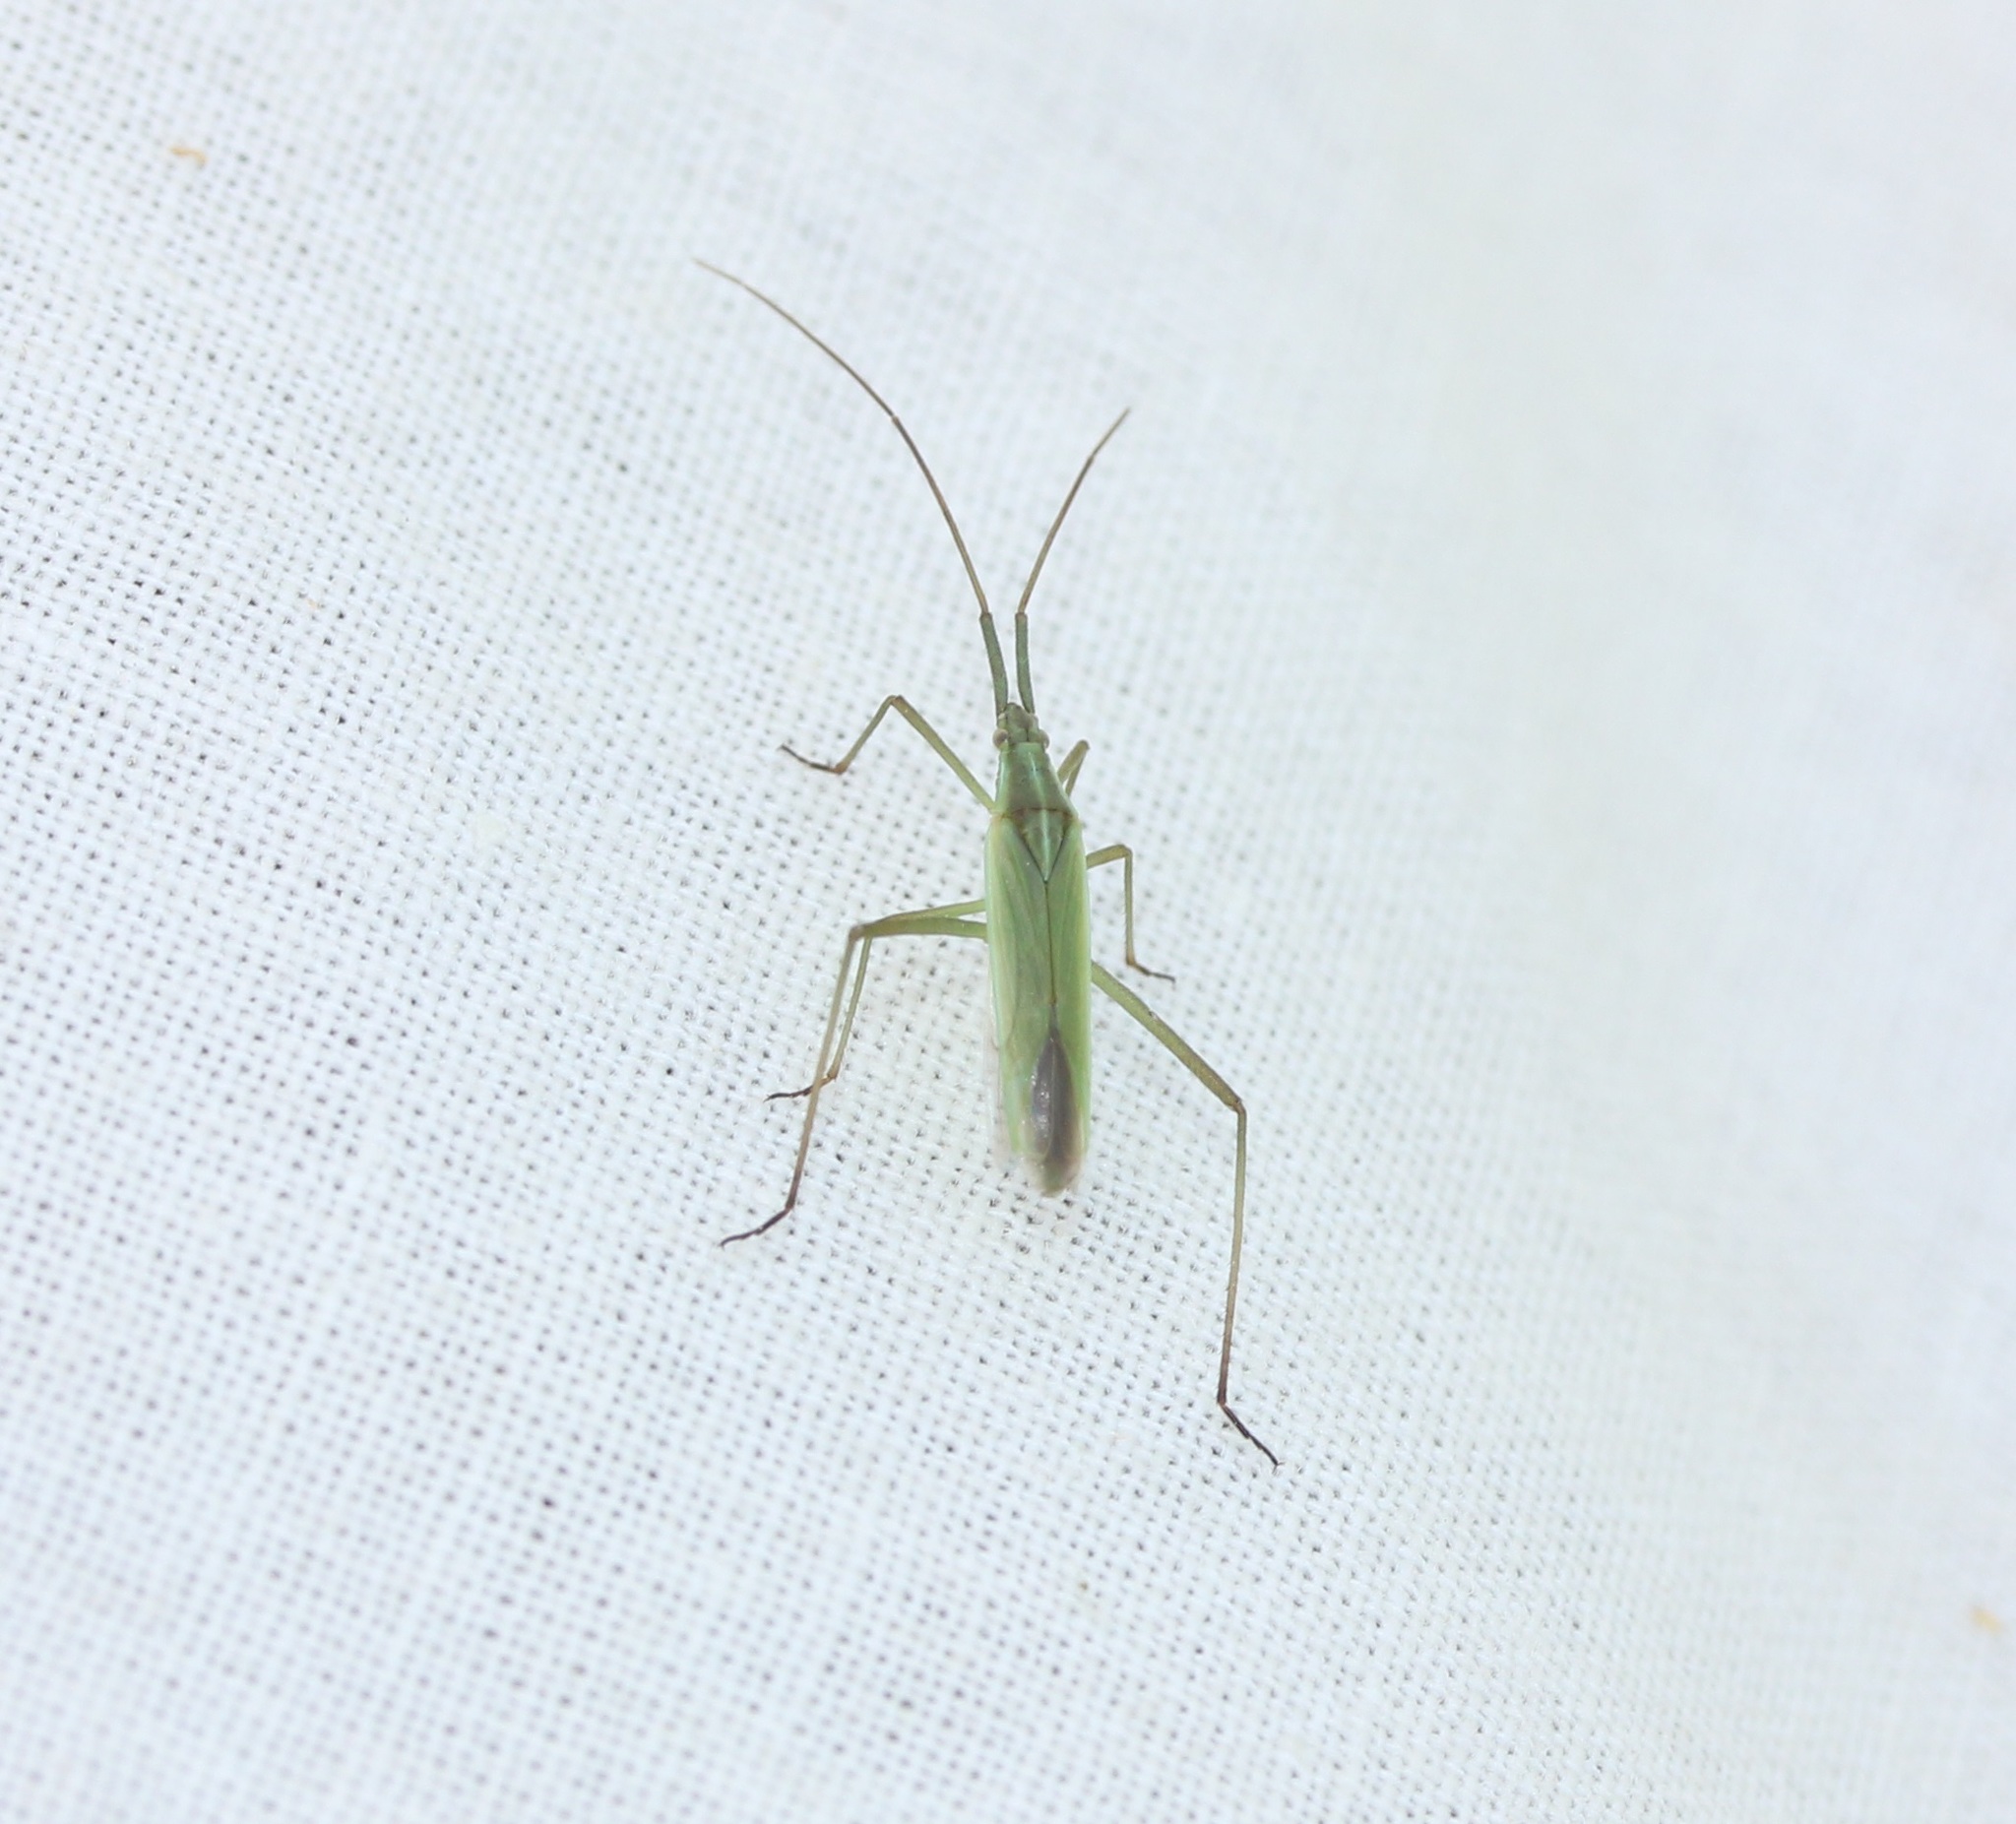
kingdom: Animalia
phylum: Arthropoda
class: Insecta
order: Hemiptera
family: Miridae
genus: Megaloceroea
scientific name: Megaloceroea recticornis
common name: Plant bug
